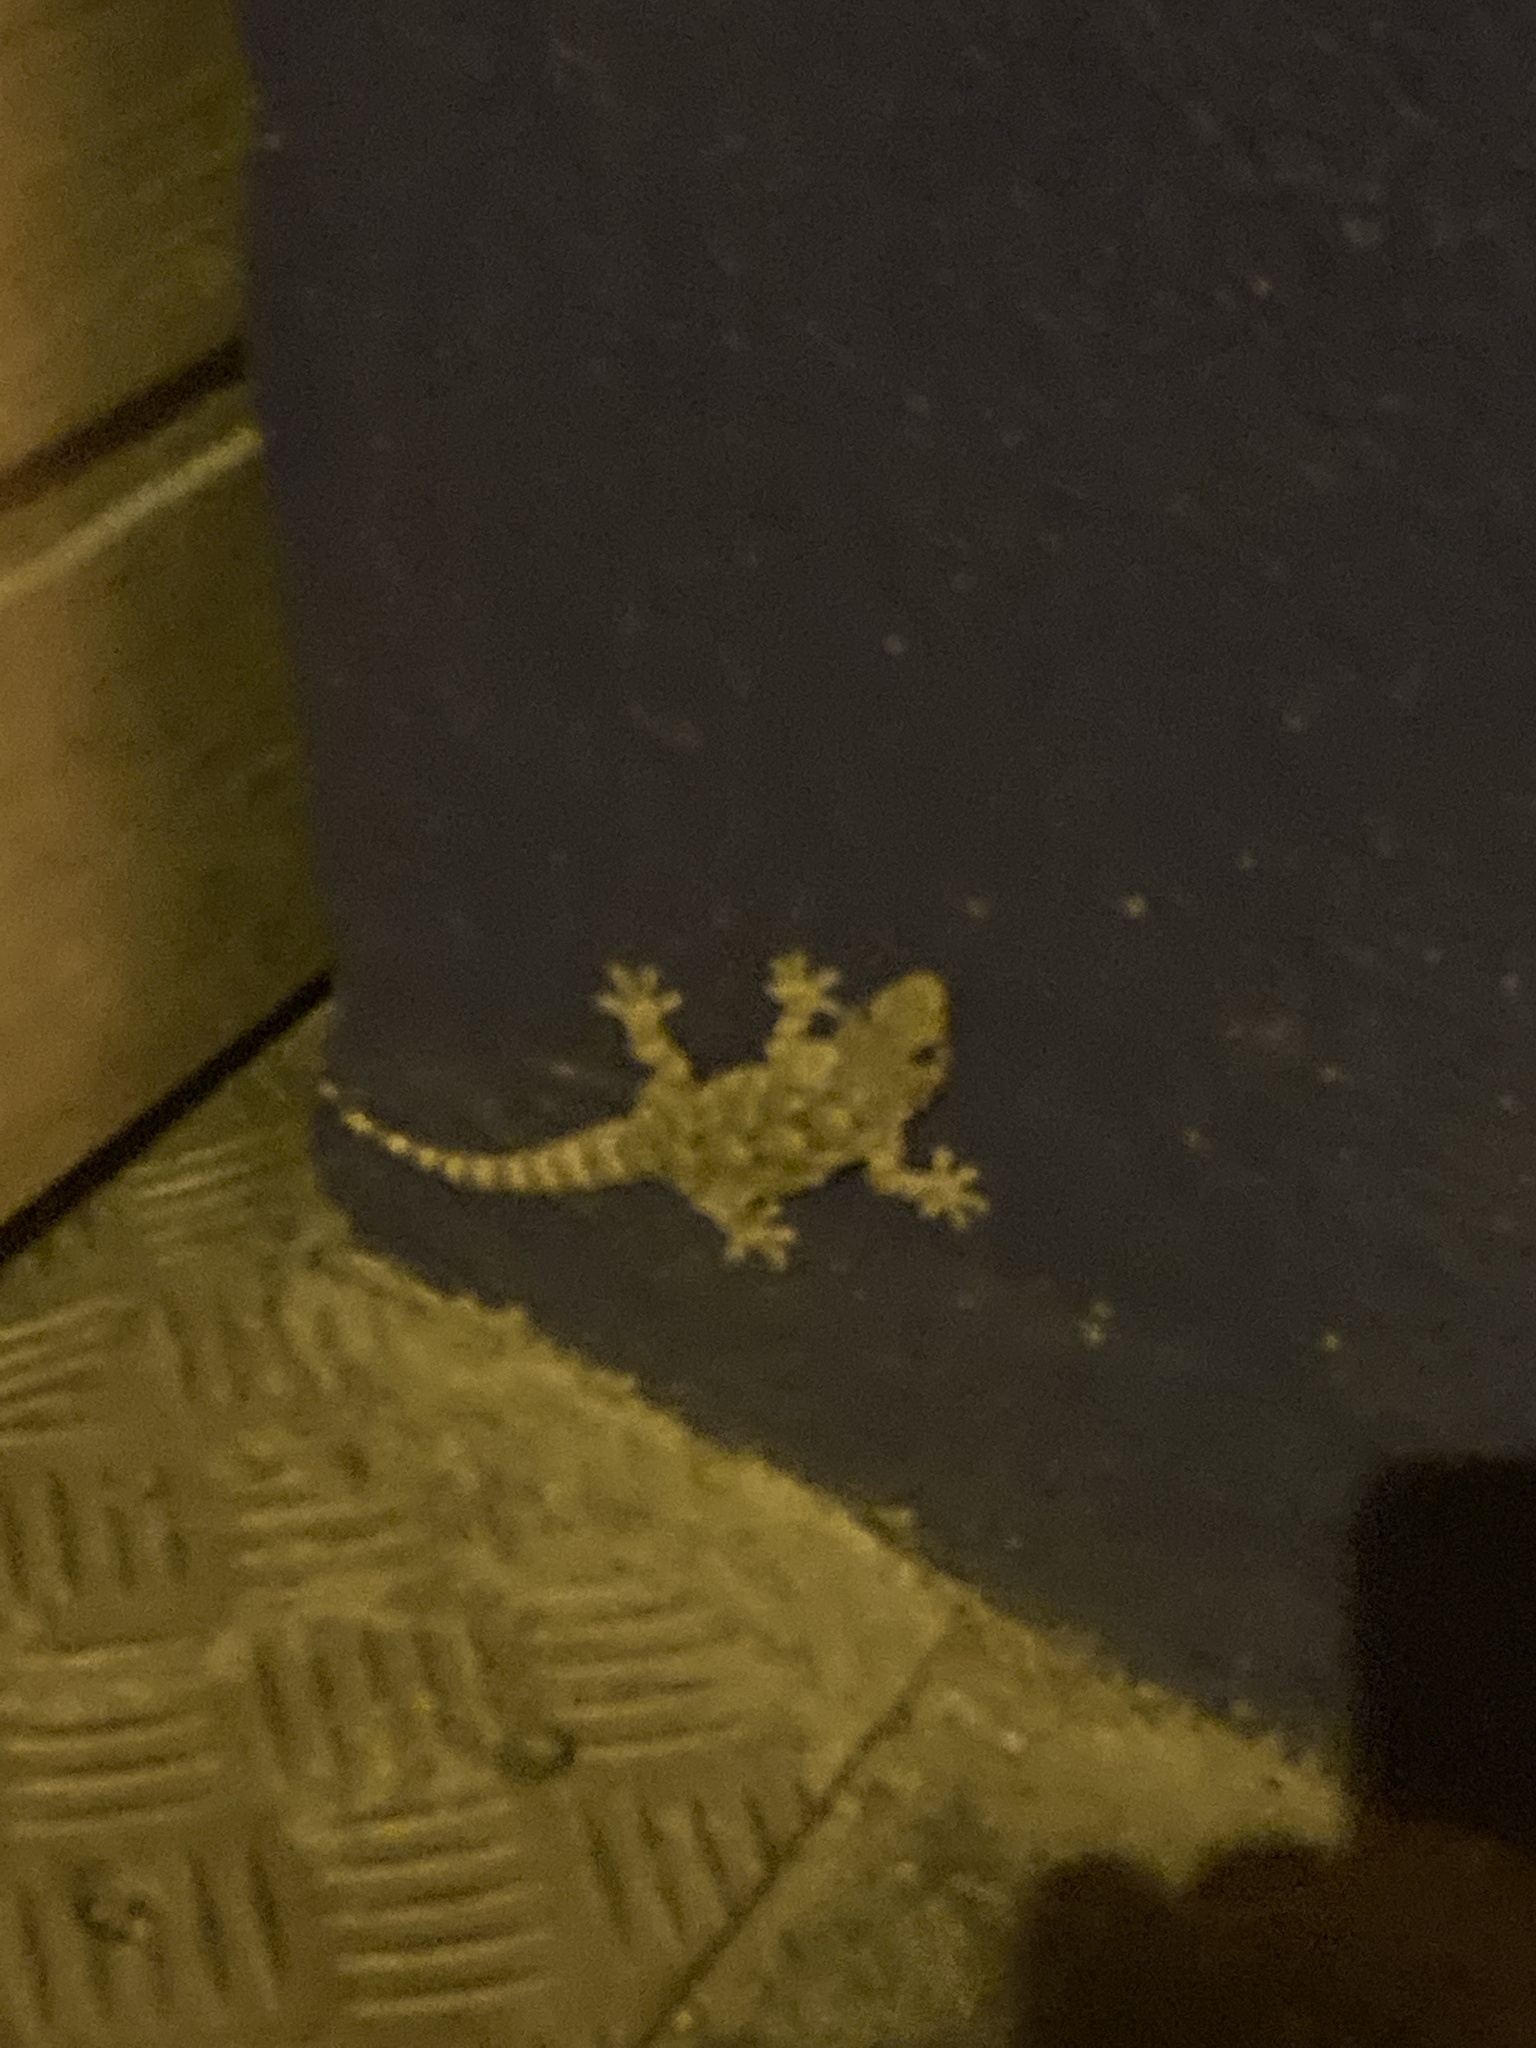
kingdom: Animalia
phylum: Chordata
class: Squamata
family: Phyllodactylidae
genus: Tarentola
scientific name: Tarentola mauritanica
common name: Moorish gecko
